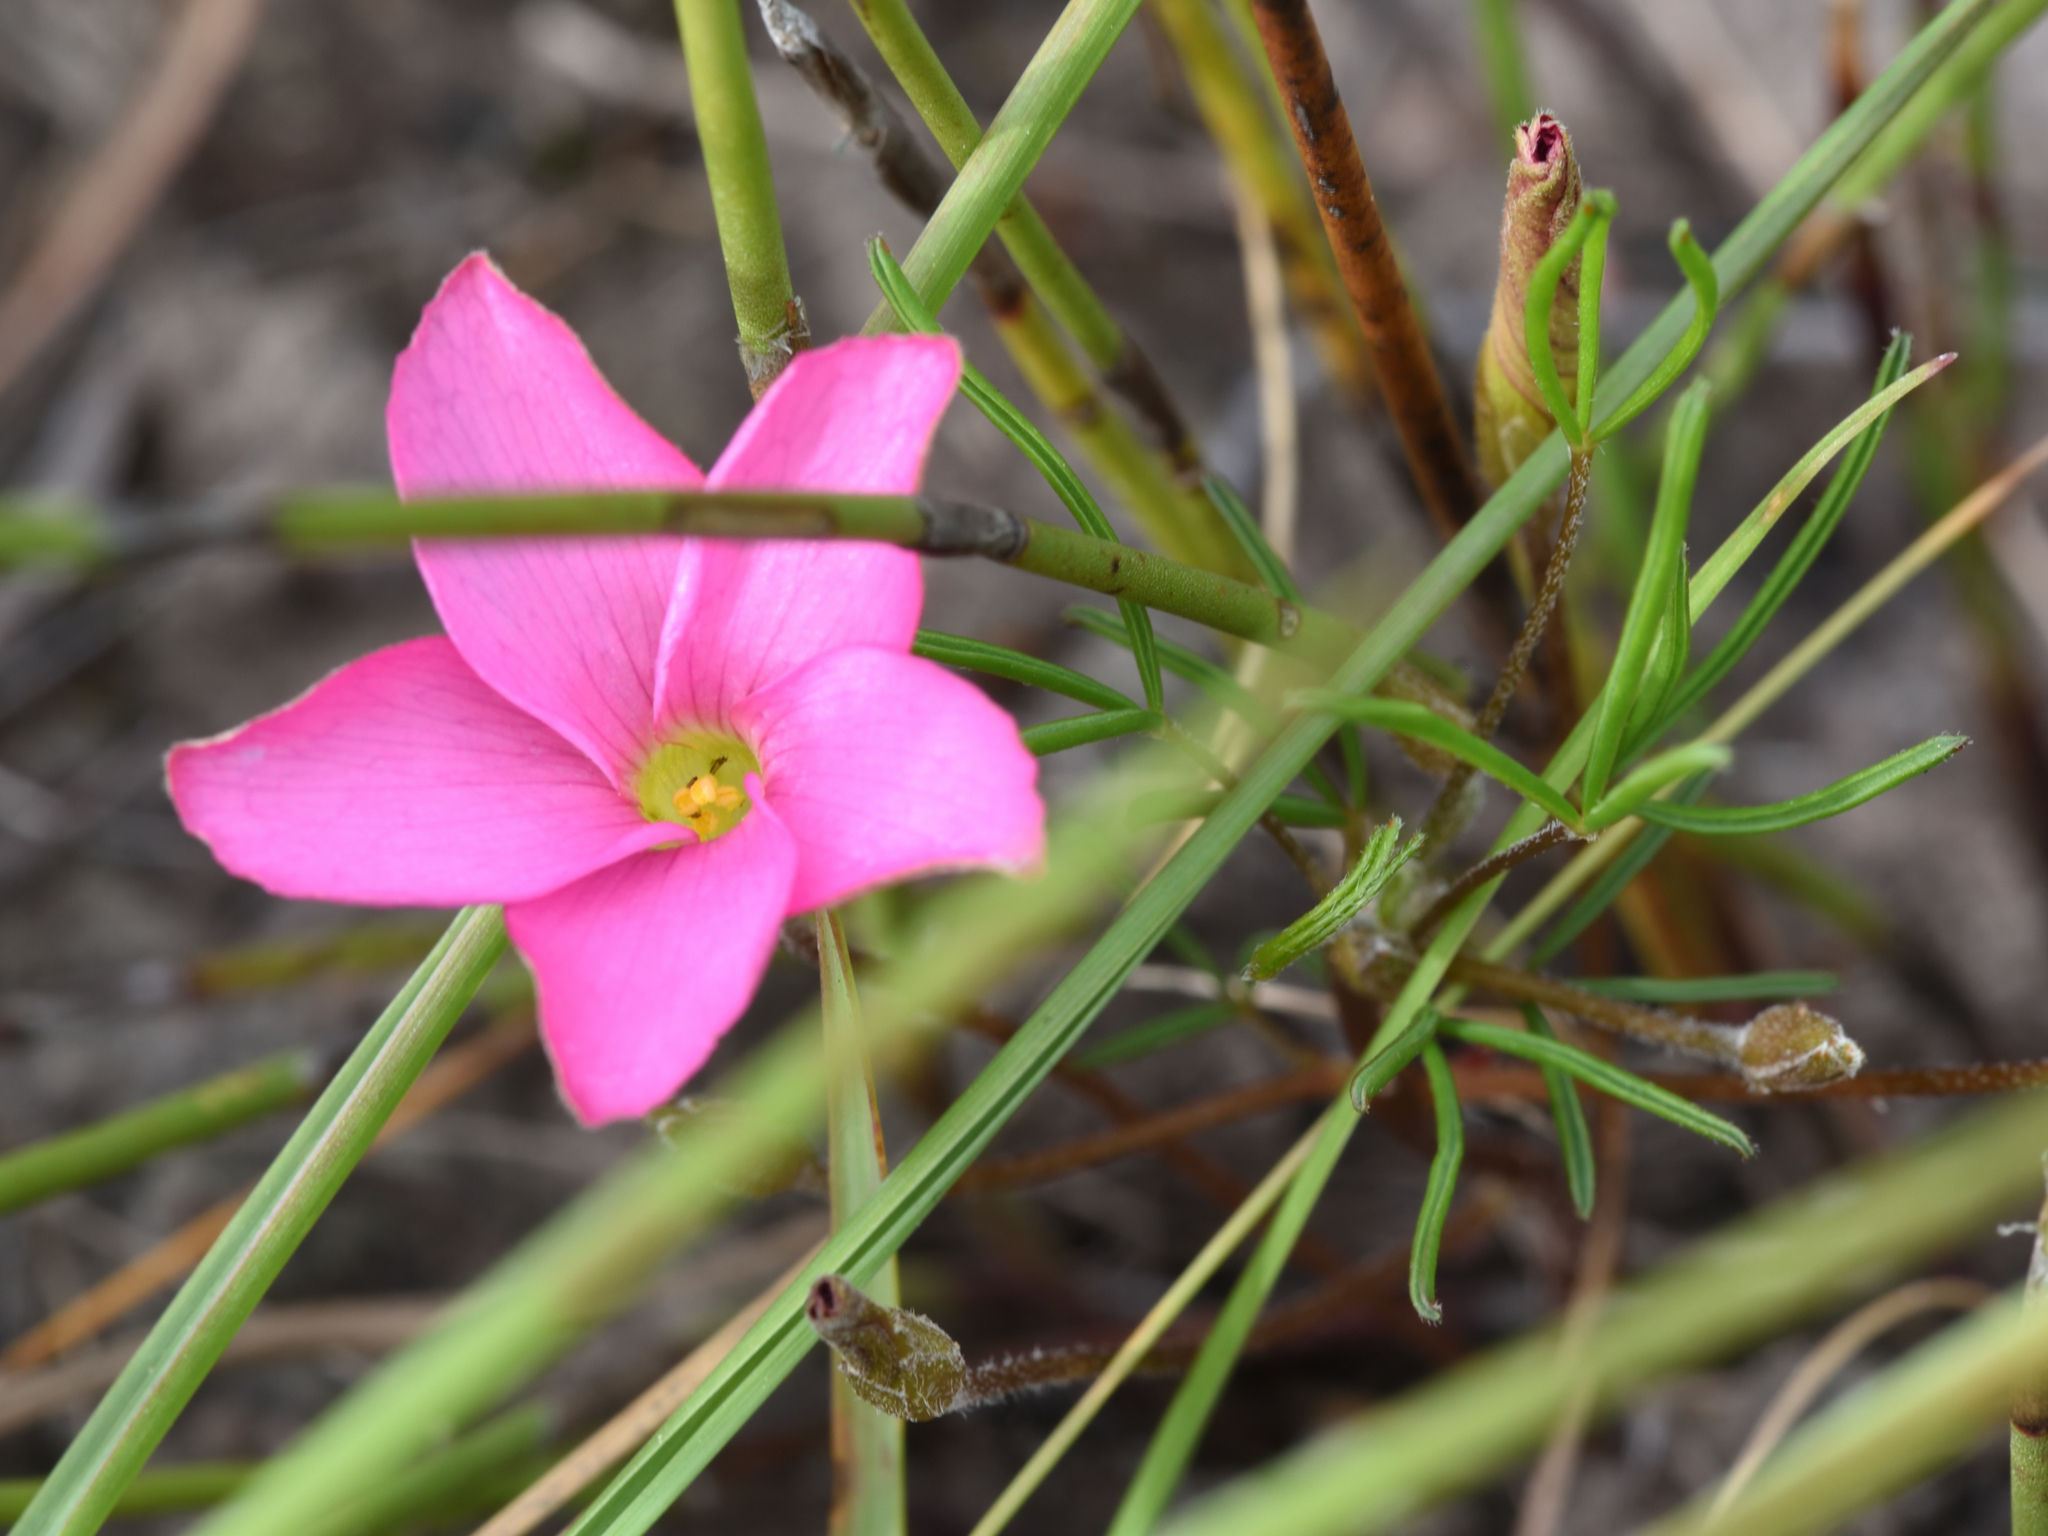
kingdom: Plantae
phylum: Tracheophyta
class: Magnoliopsida
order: Oxalidales
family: Oxalidaceae
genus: Oxalis
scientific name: Oxalis polyphylla
